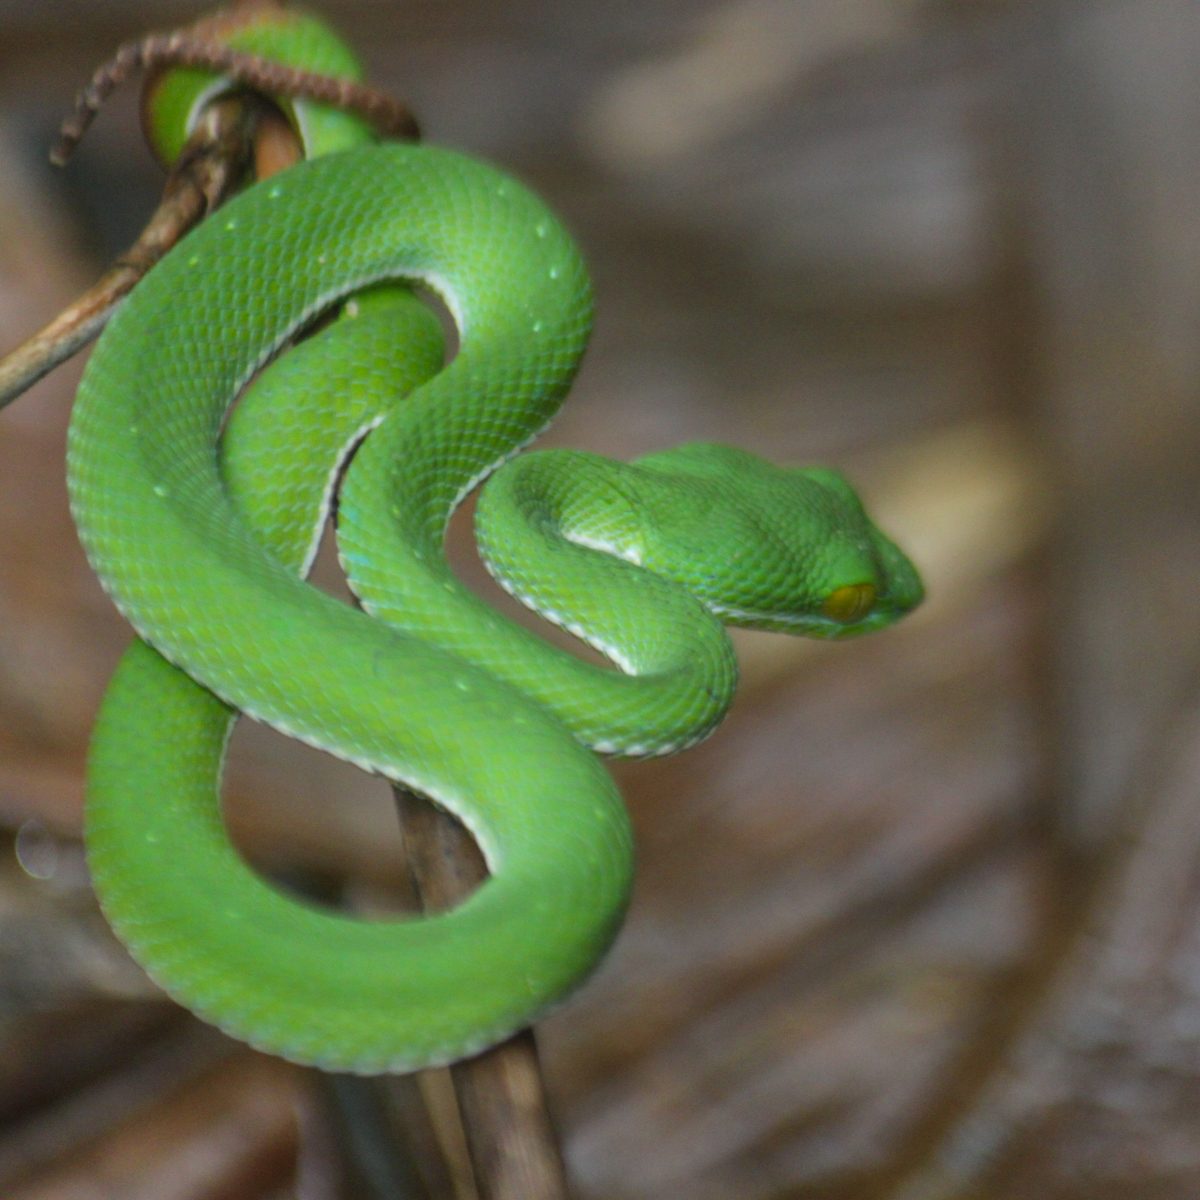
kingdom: Animalia
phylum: Chordata
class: Squamata
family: Viperidae
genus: Trimeresurus
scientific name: Trimeresurus cardamomensis
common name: Cardamom mountains green pitviper
